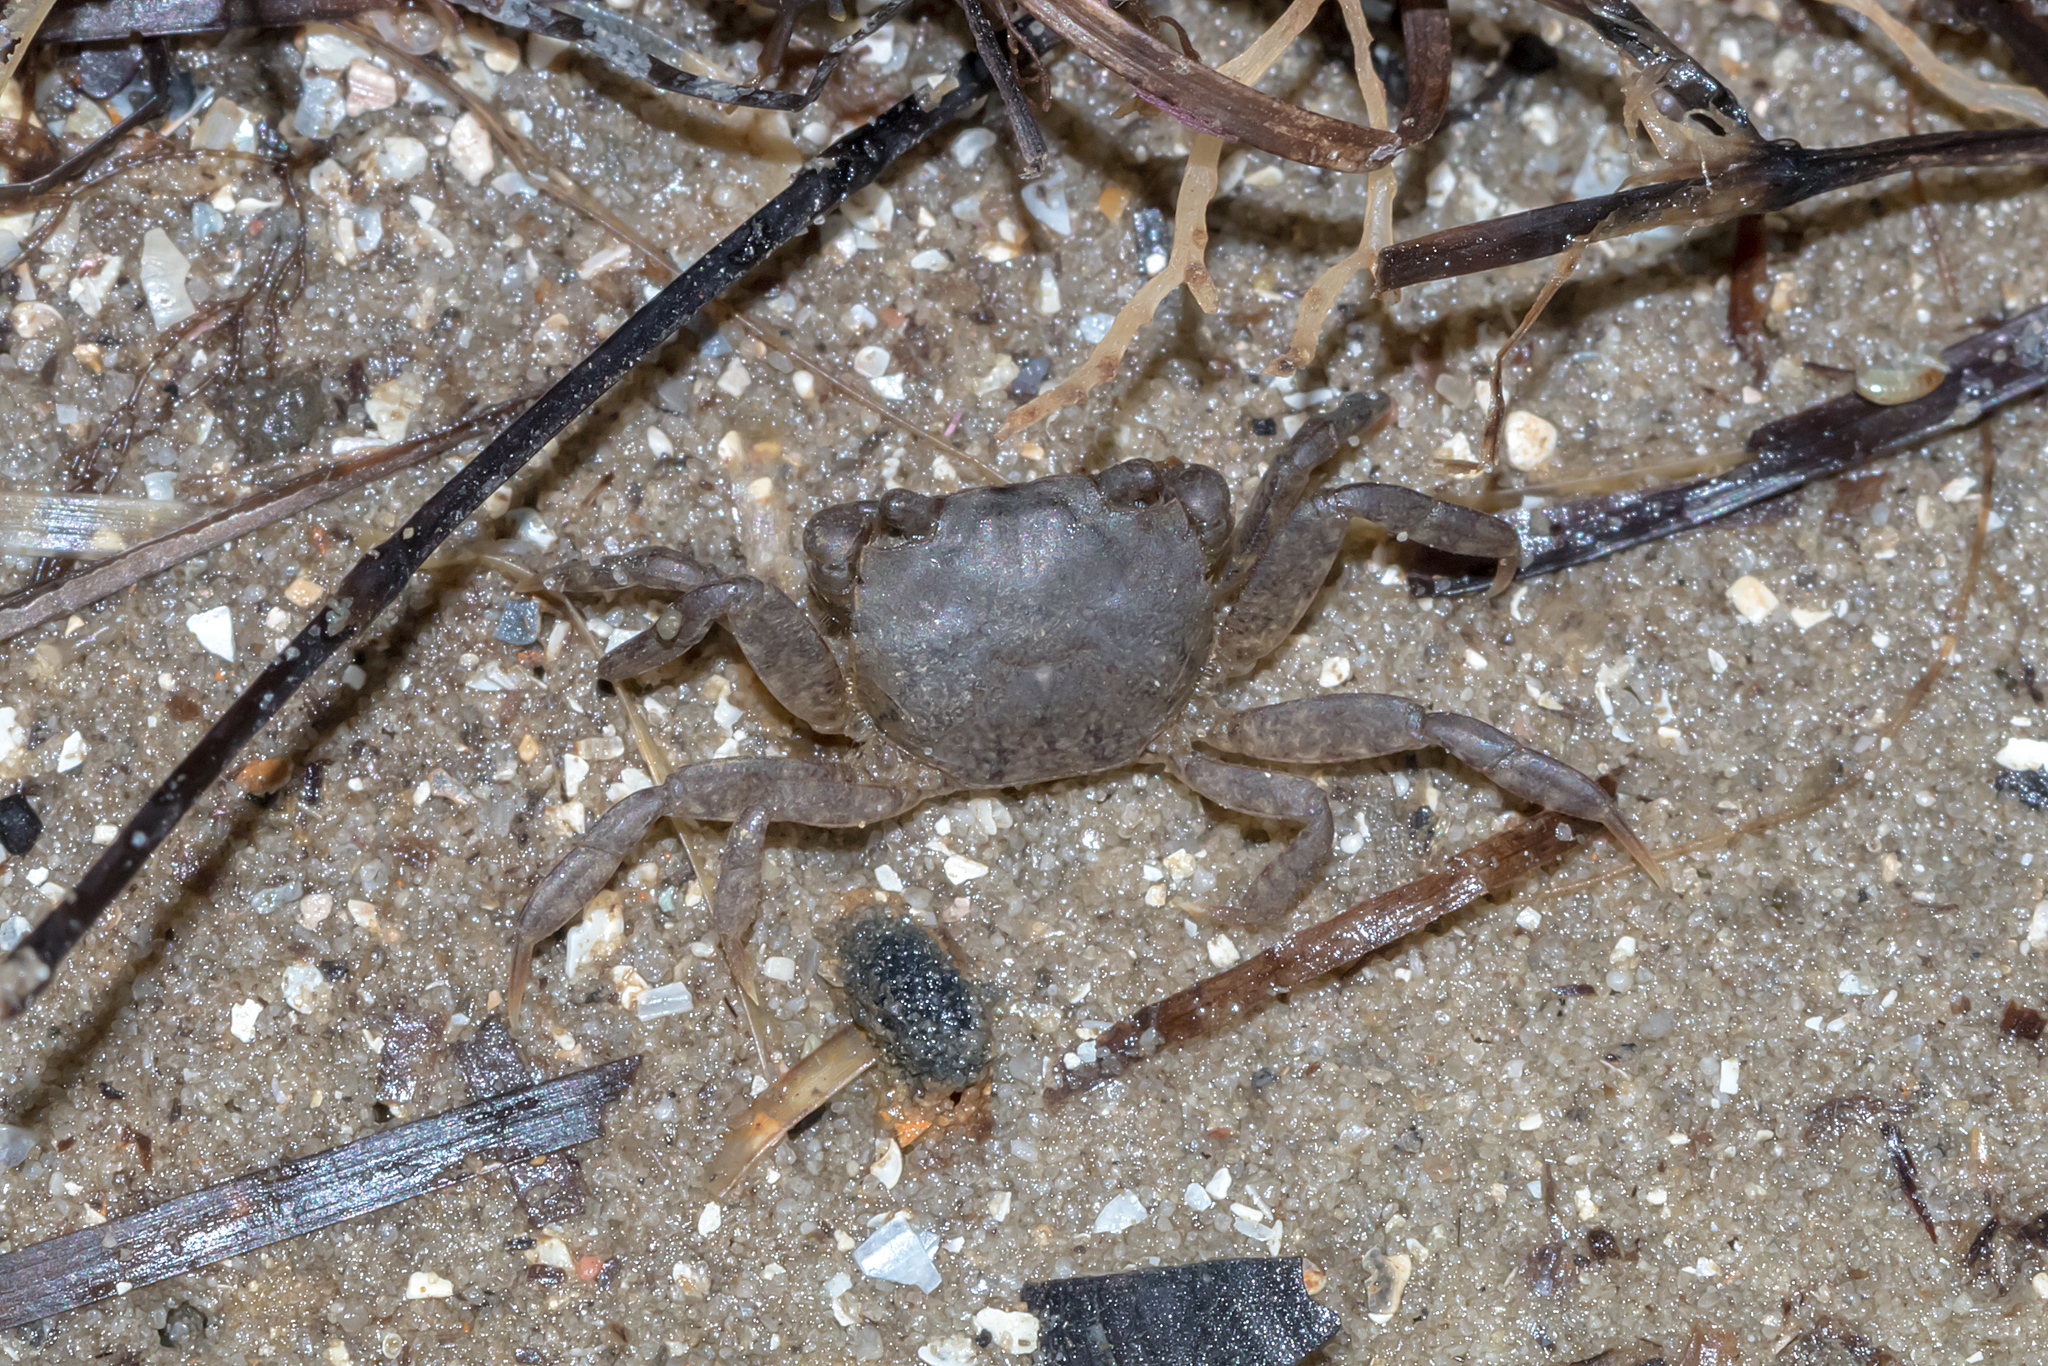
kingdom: Animalia
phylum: Arthropoda
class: Malacostraca
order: Decapoda
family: Varunidae
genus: Pseudohelice
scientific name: Pseudohelice subquadrata
